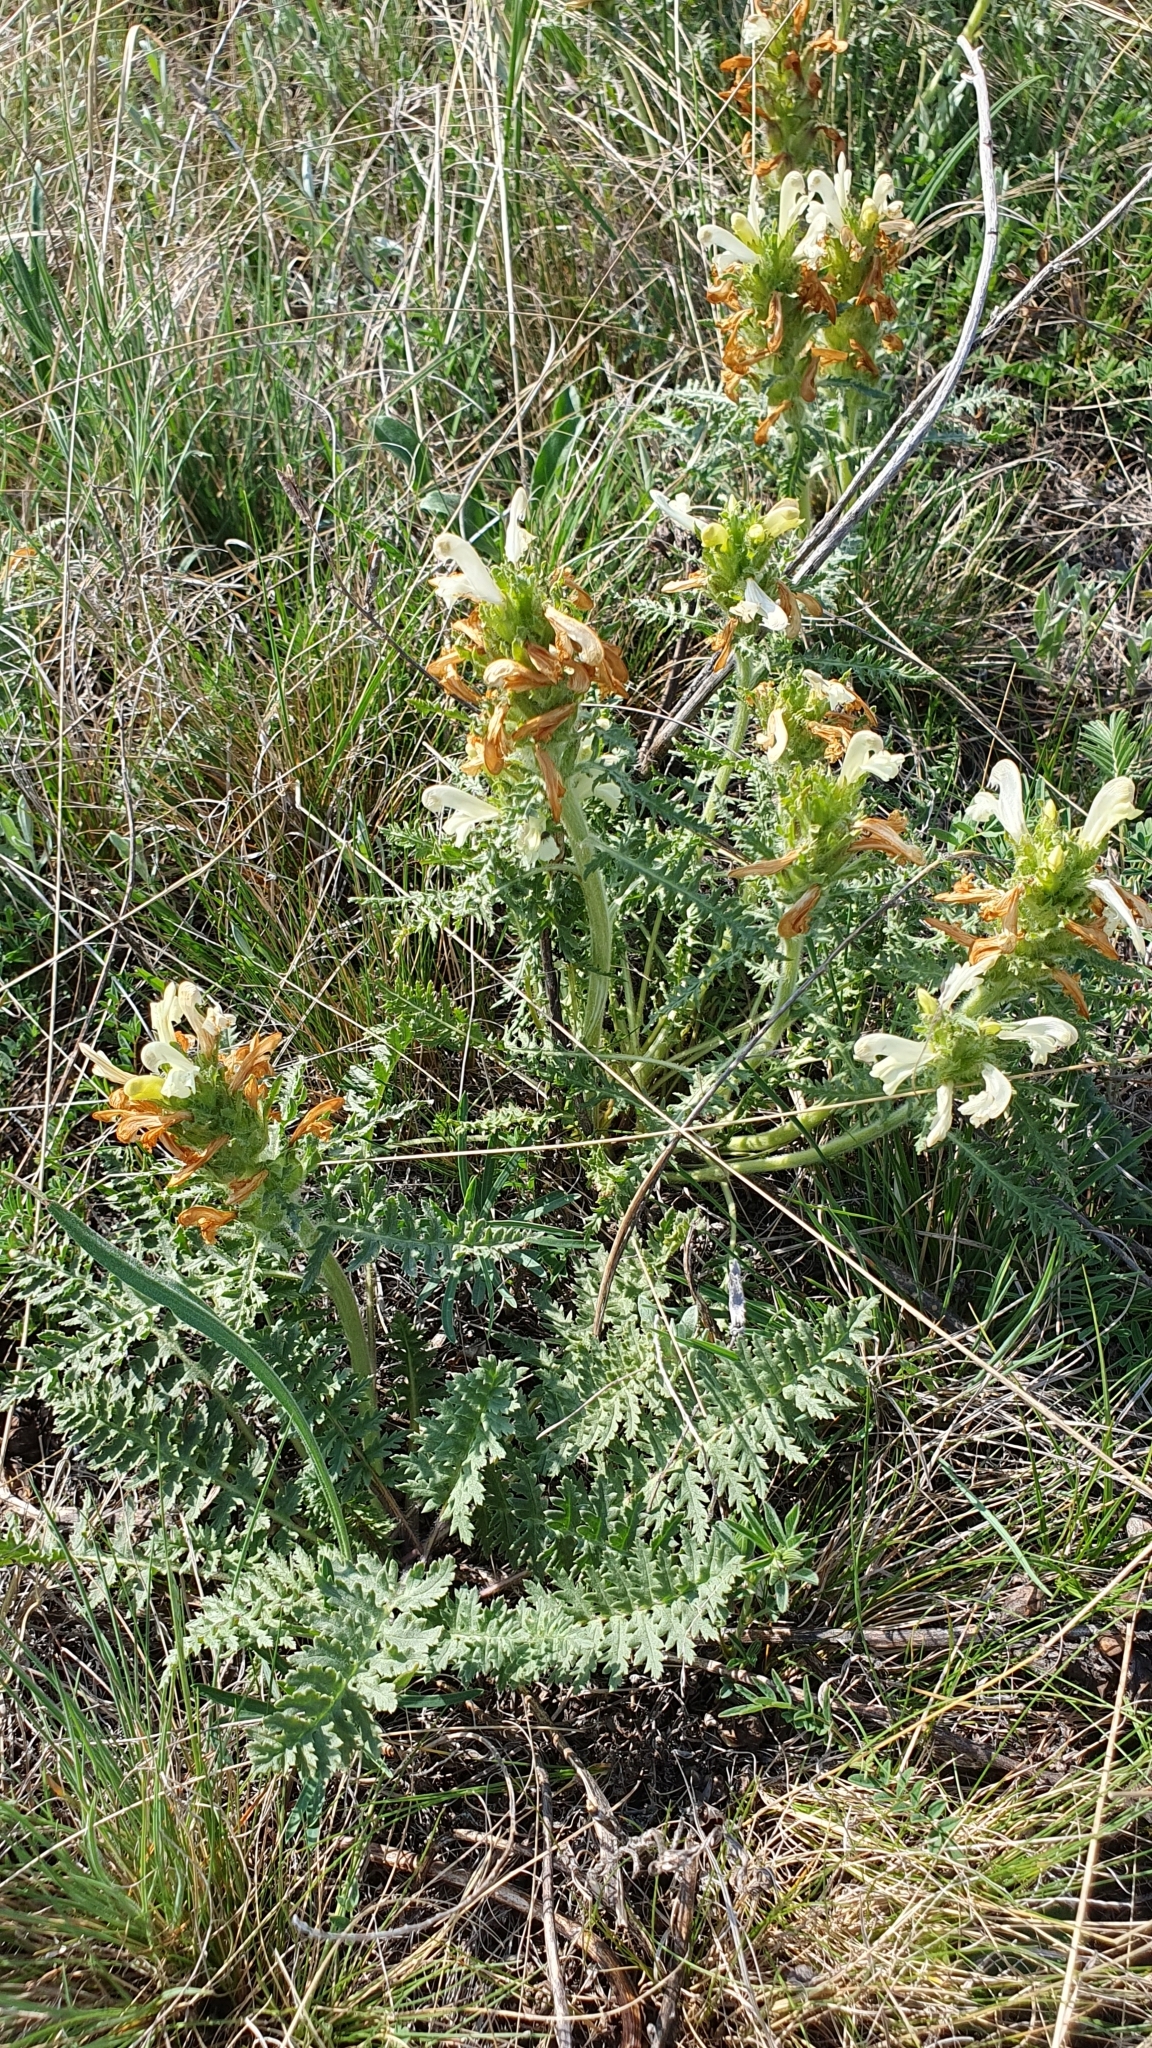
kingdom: Plantae
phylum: Tracheophyta
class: Magnoliopsida
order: Lamiales
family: Orobanchaceae
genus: Pedicularis
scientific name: Pedicularis dasystachys
